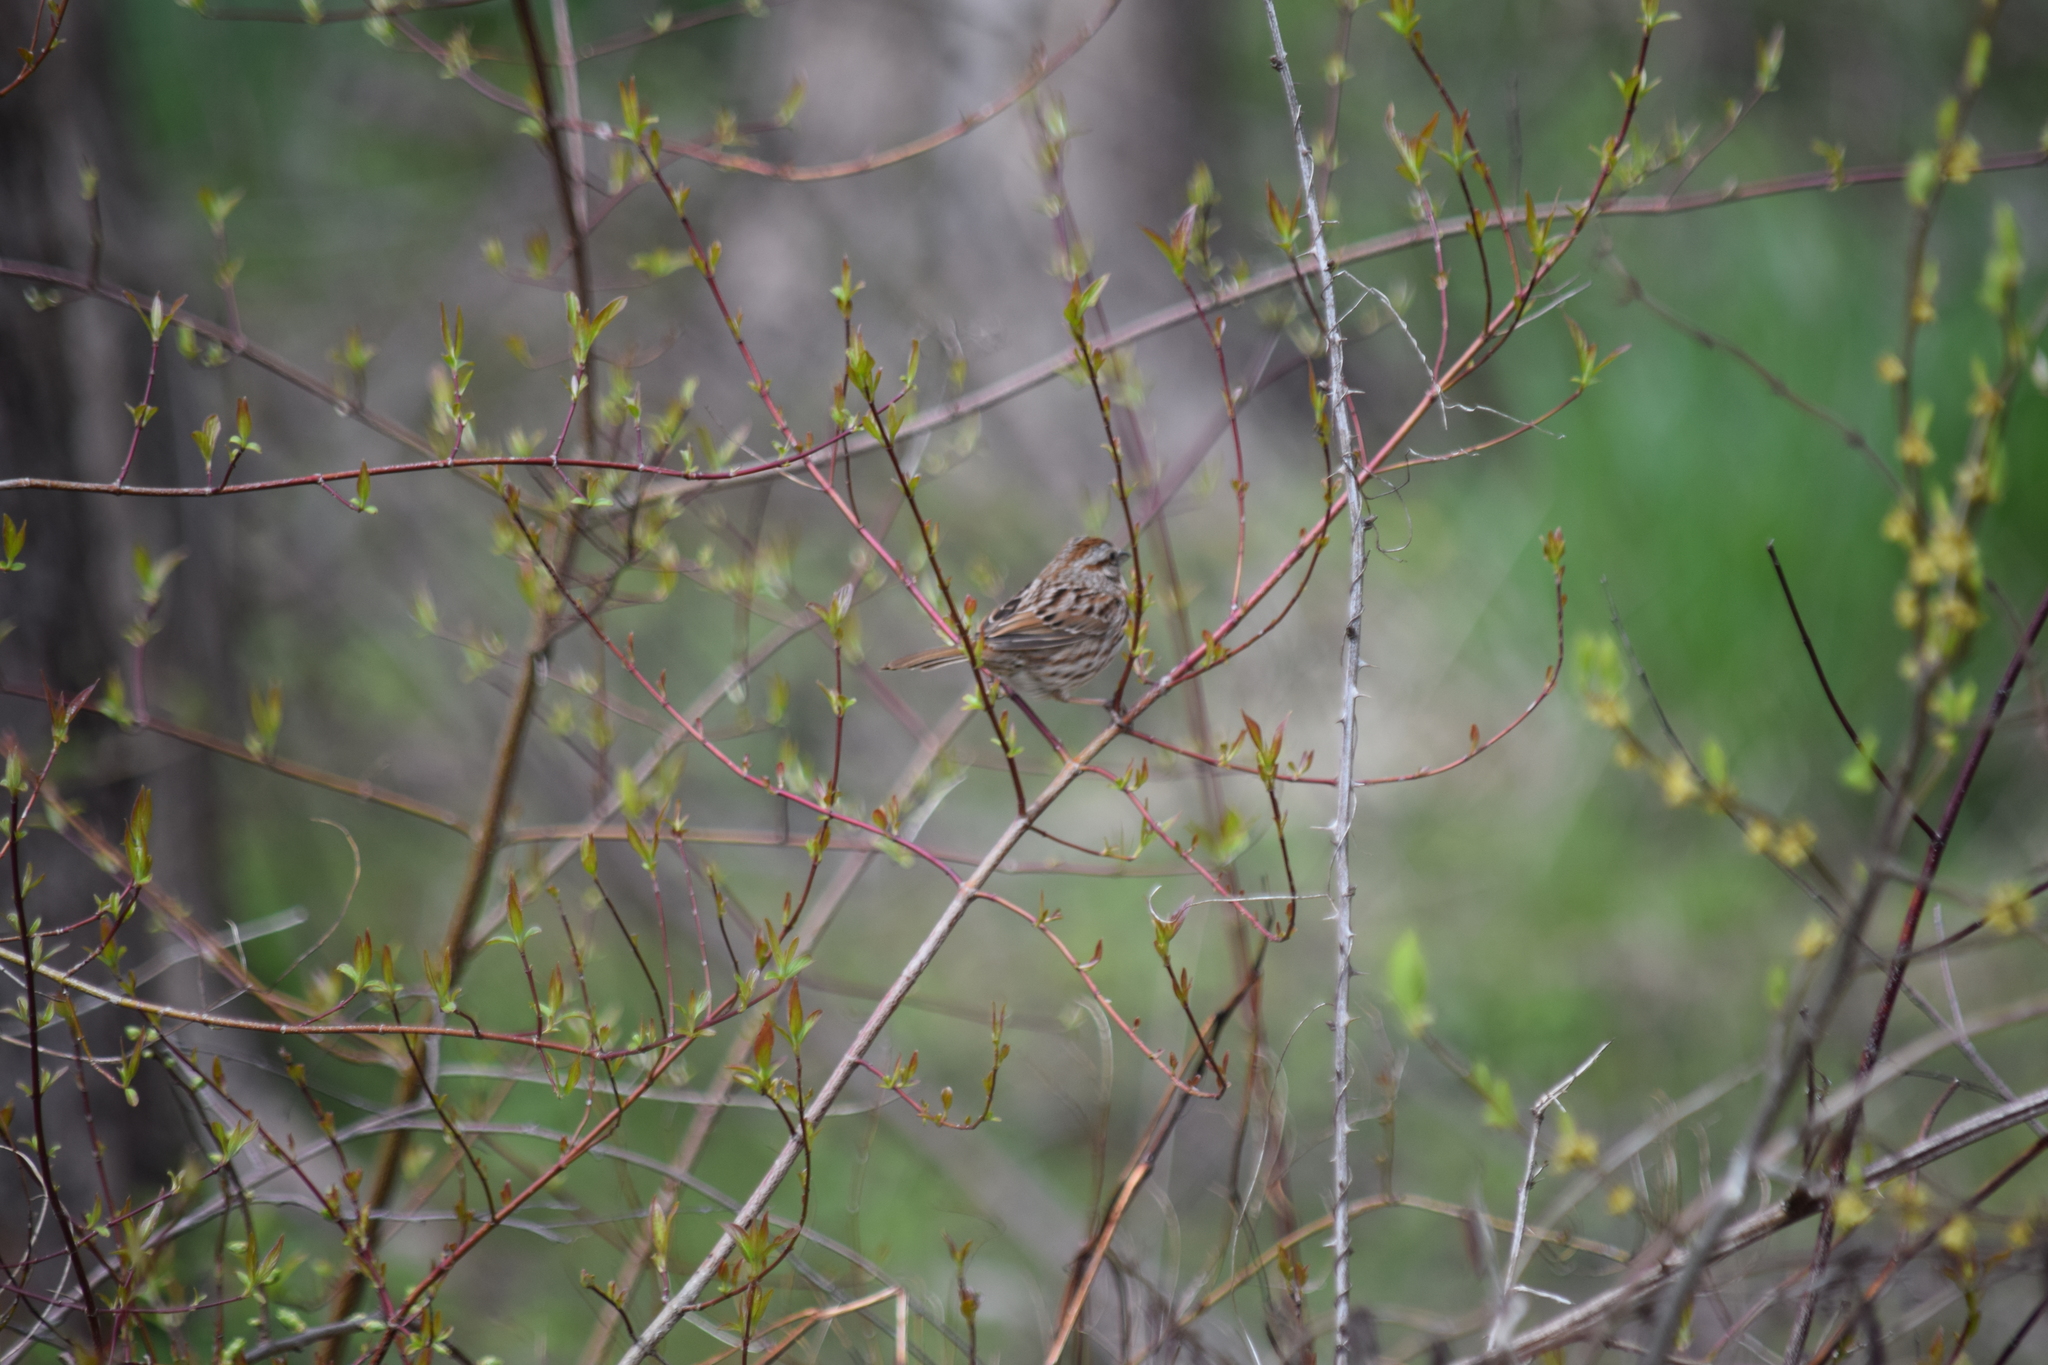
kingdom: Animalia
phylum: Chordata
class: Aves
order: Passeriformes
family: Passerellidae
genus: Melospiza
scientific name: Melospiza melodia
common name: Song sparrow
